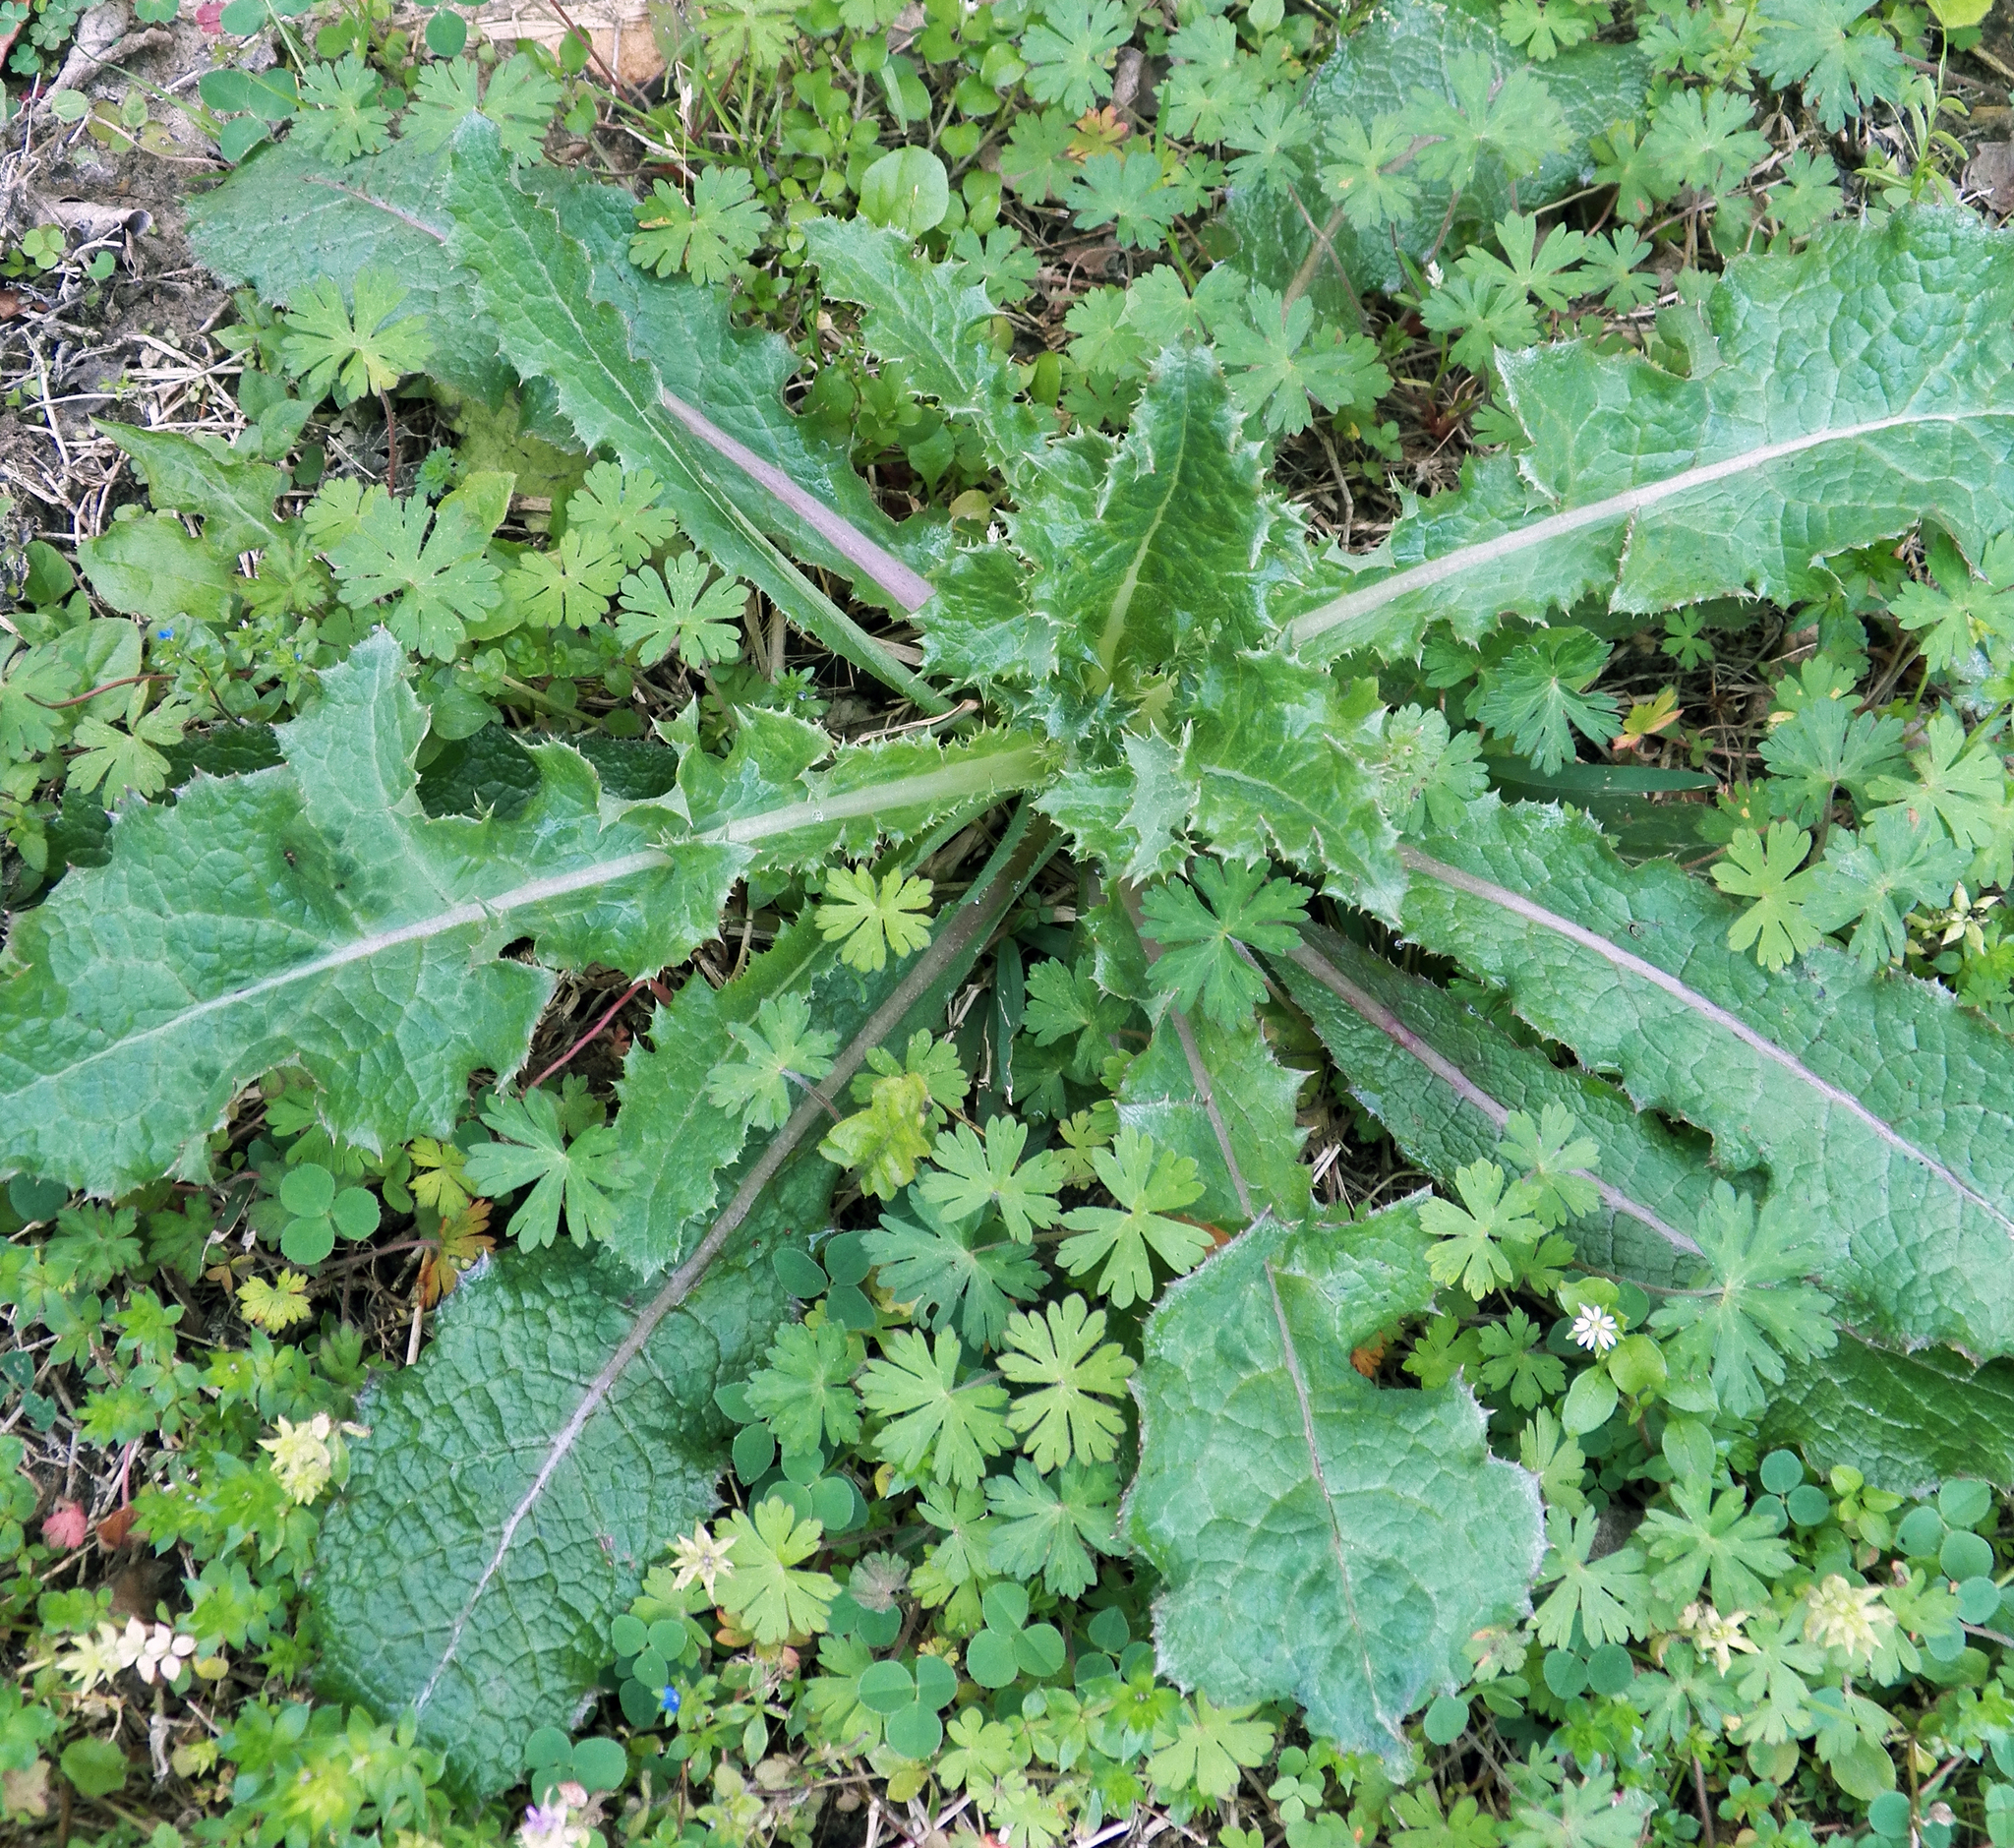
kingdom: Plantae
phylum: Tracheophyta
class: Magnoliopsida
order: Asterales
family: Asteraceae
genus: Sonchus
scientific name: Sonchus asper
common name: Prickly sow-thistle
